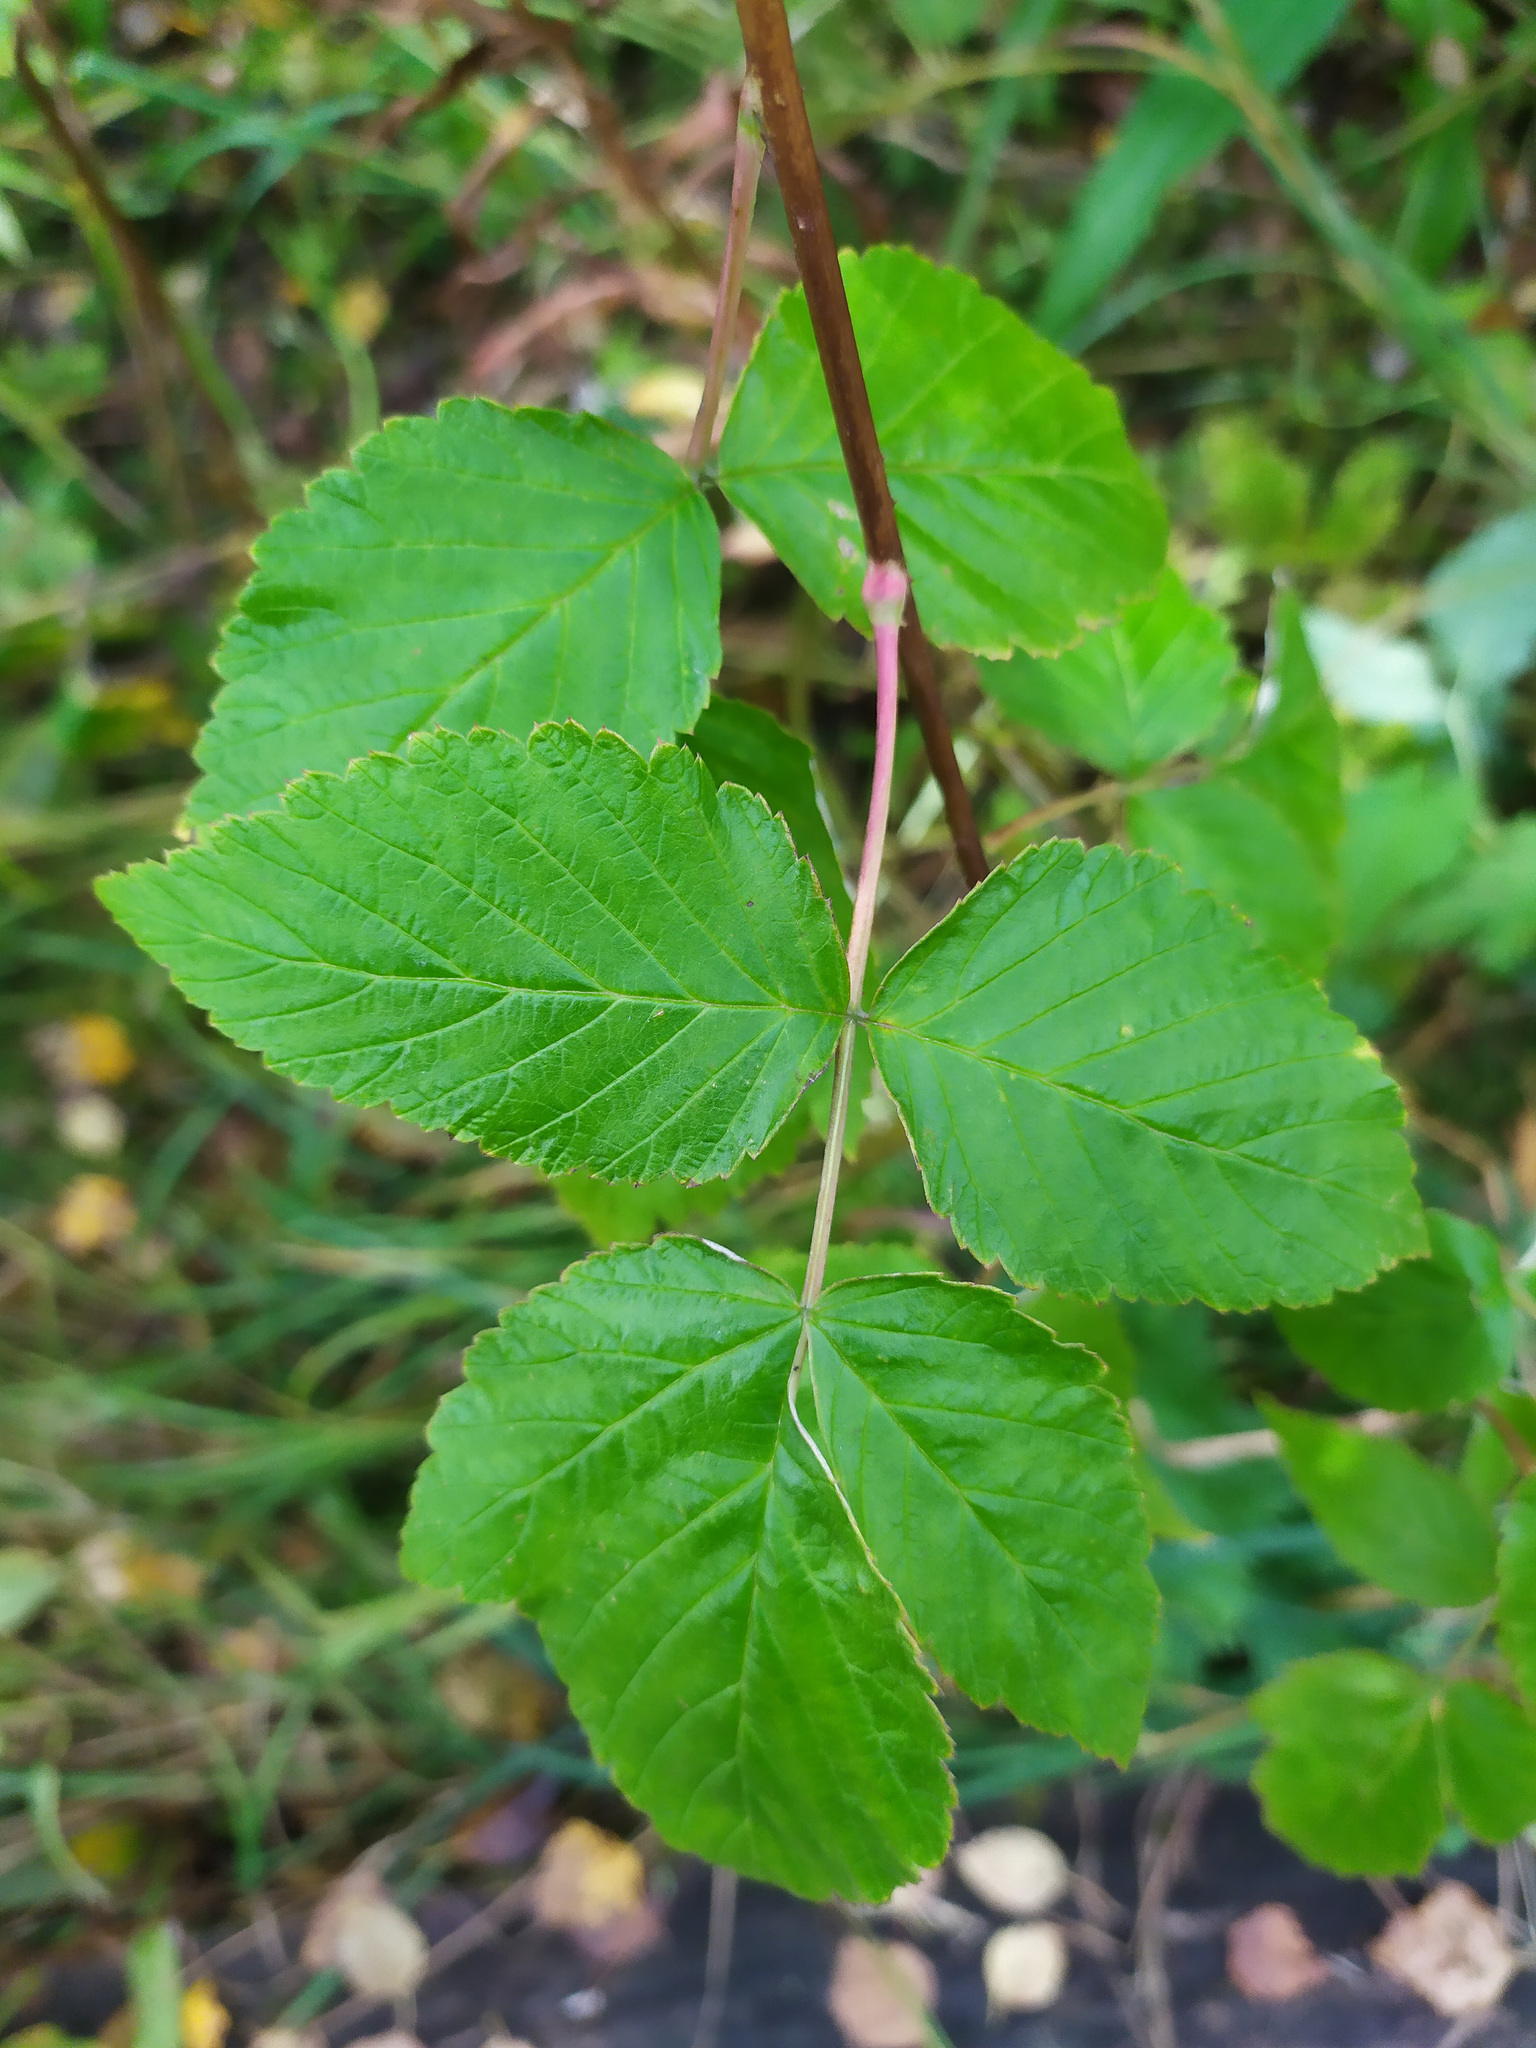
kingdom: Plantae
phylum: Tracheophyta
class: Magnoliopsida
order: Rosales
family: Rosaceae
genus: Rubus
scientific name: Rubus idaeus
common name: Raspberry
